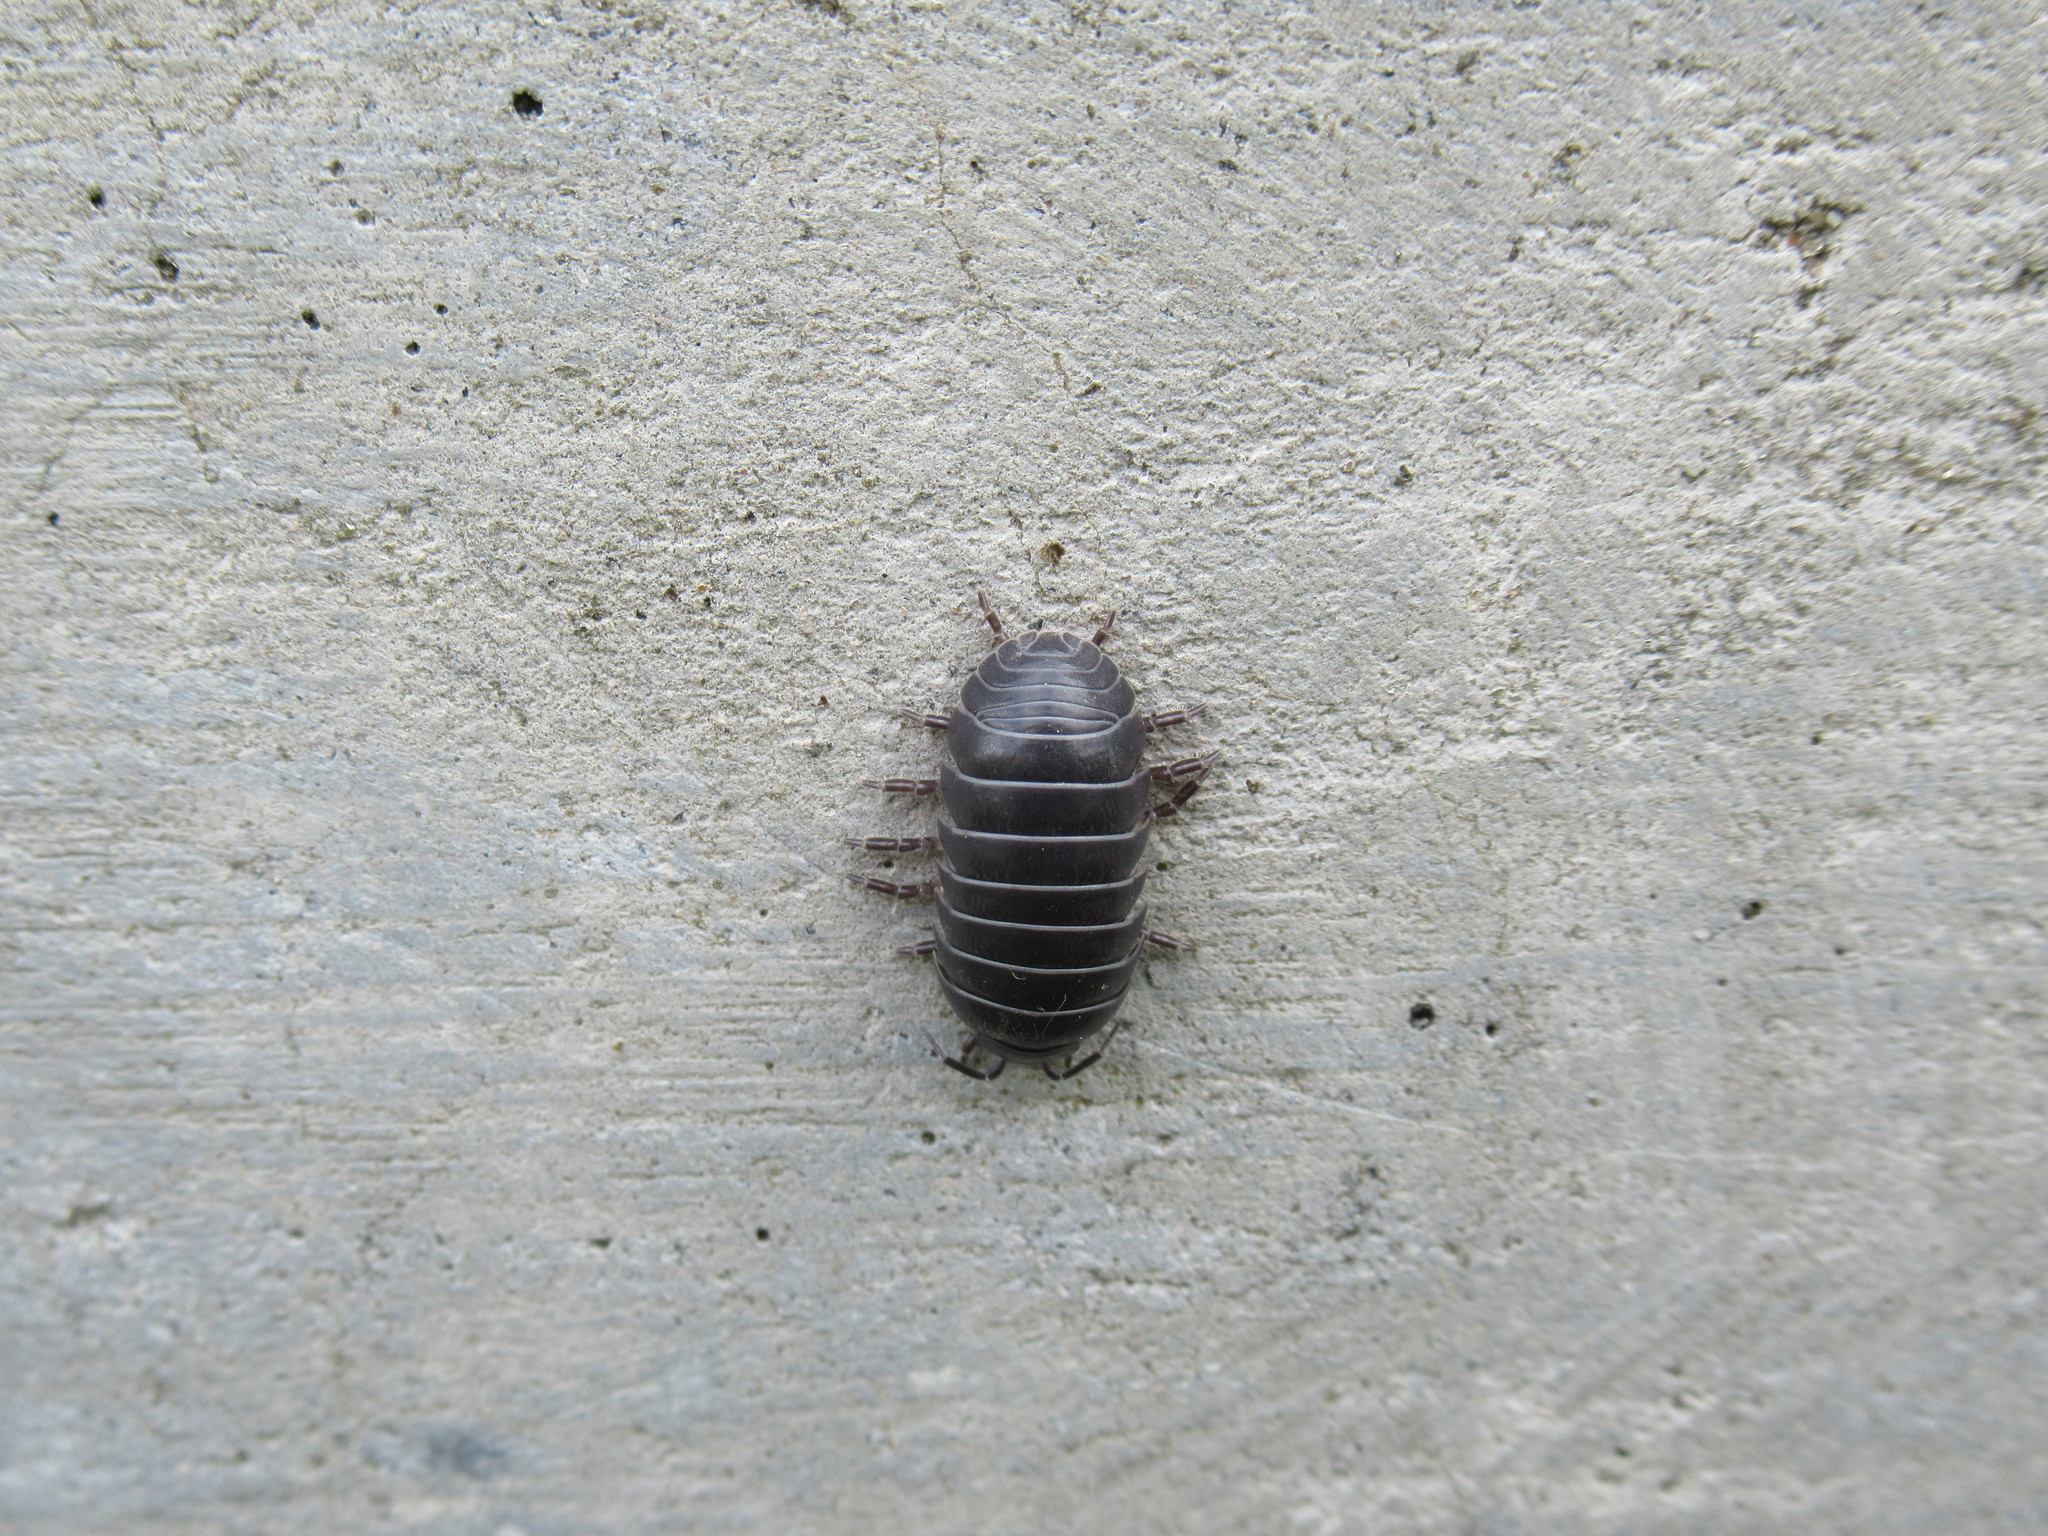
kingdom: Animalia
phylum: Arthropoda
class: Malacostraca
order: Isopoda
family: Armadillidiidae
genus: Armadillidium
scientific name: Armadillidium vulgare
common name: Common pill woodlouse
